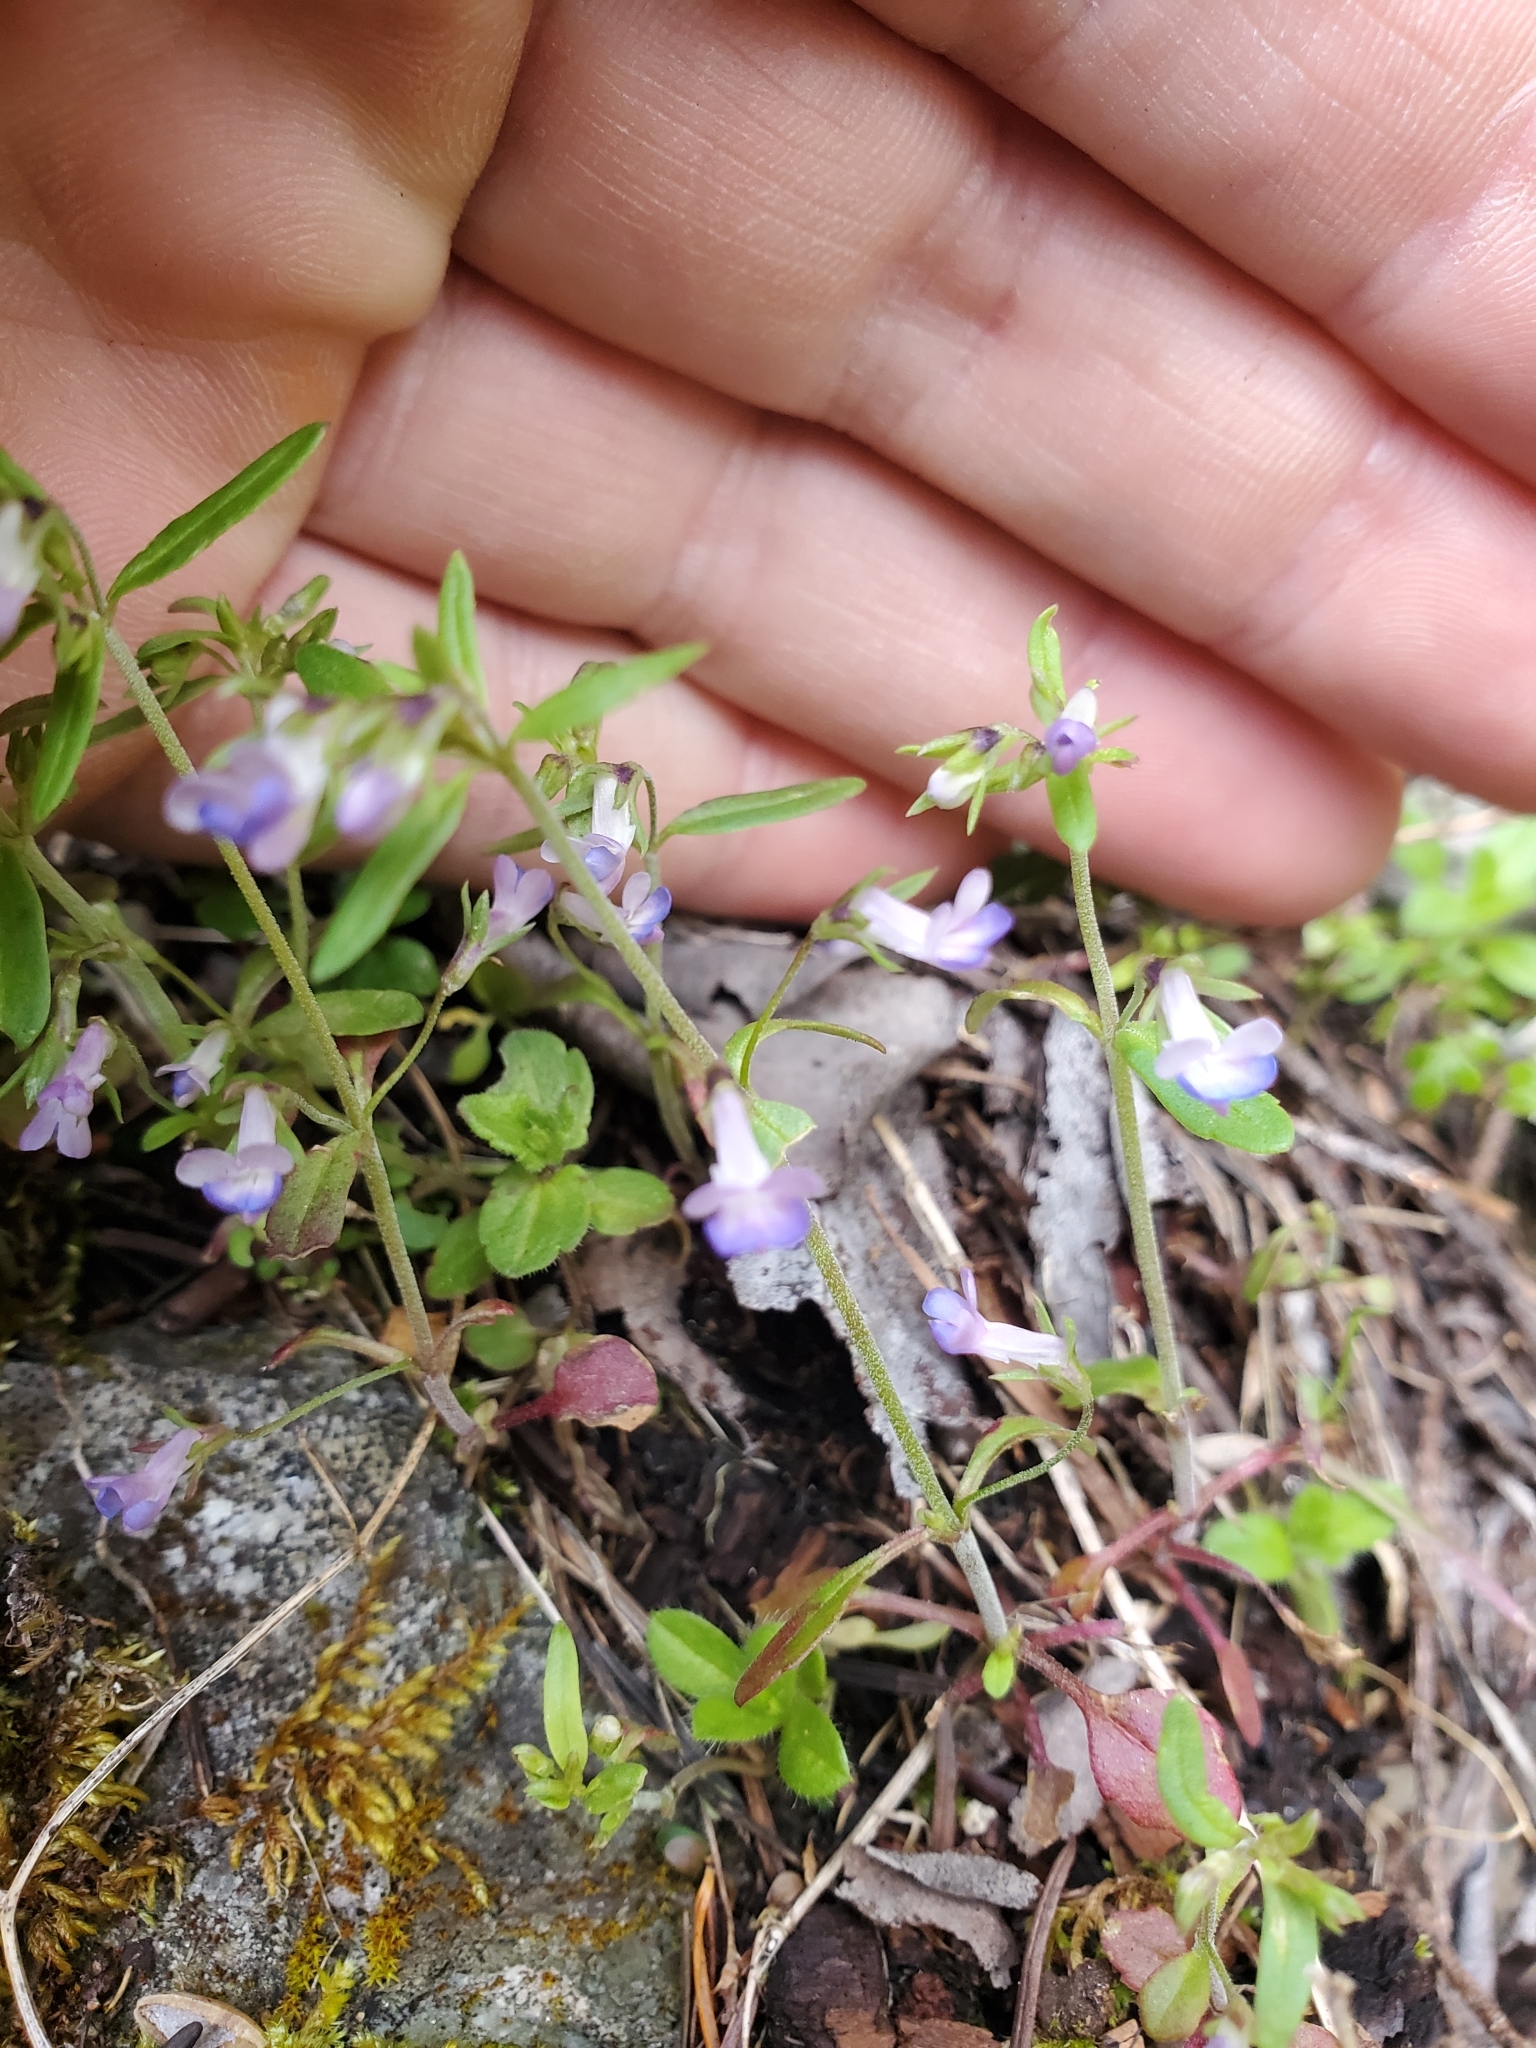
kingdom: Plantae
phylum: Tracheophyta
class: Magnoliopsida
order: Lamiales
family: Plantaginaceae
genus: Collinsia
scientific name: Collinsia grandiflora
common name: Large-flower blue-eyed-mary
